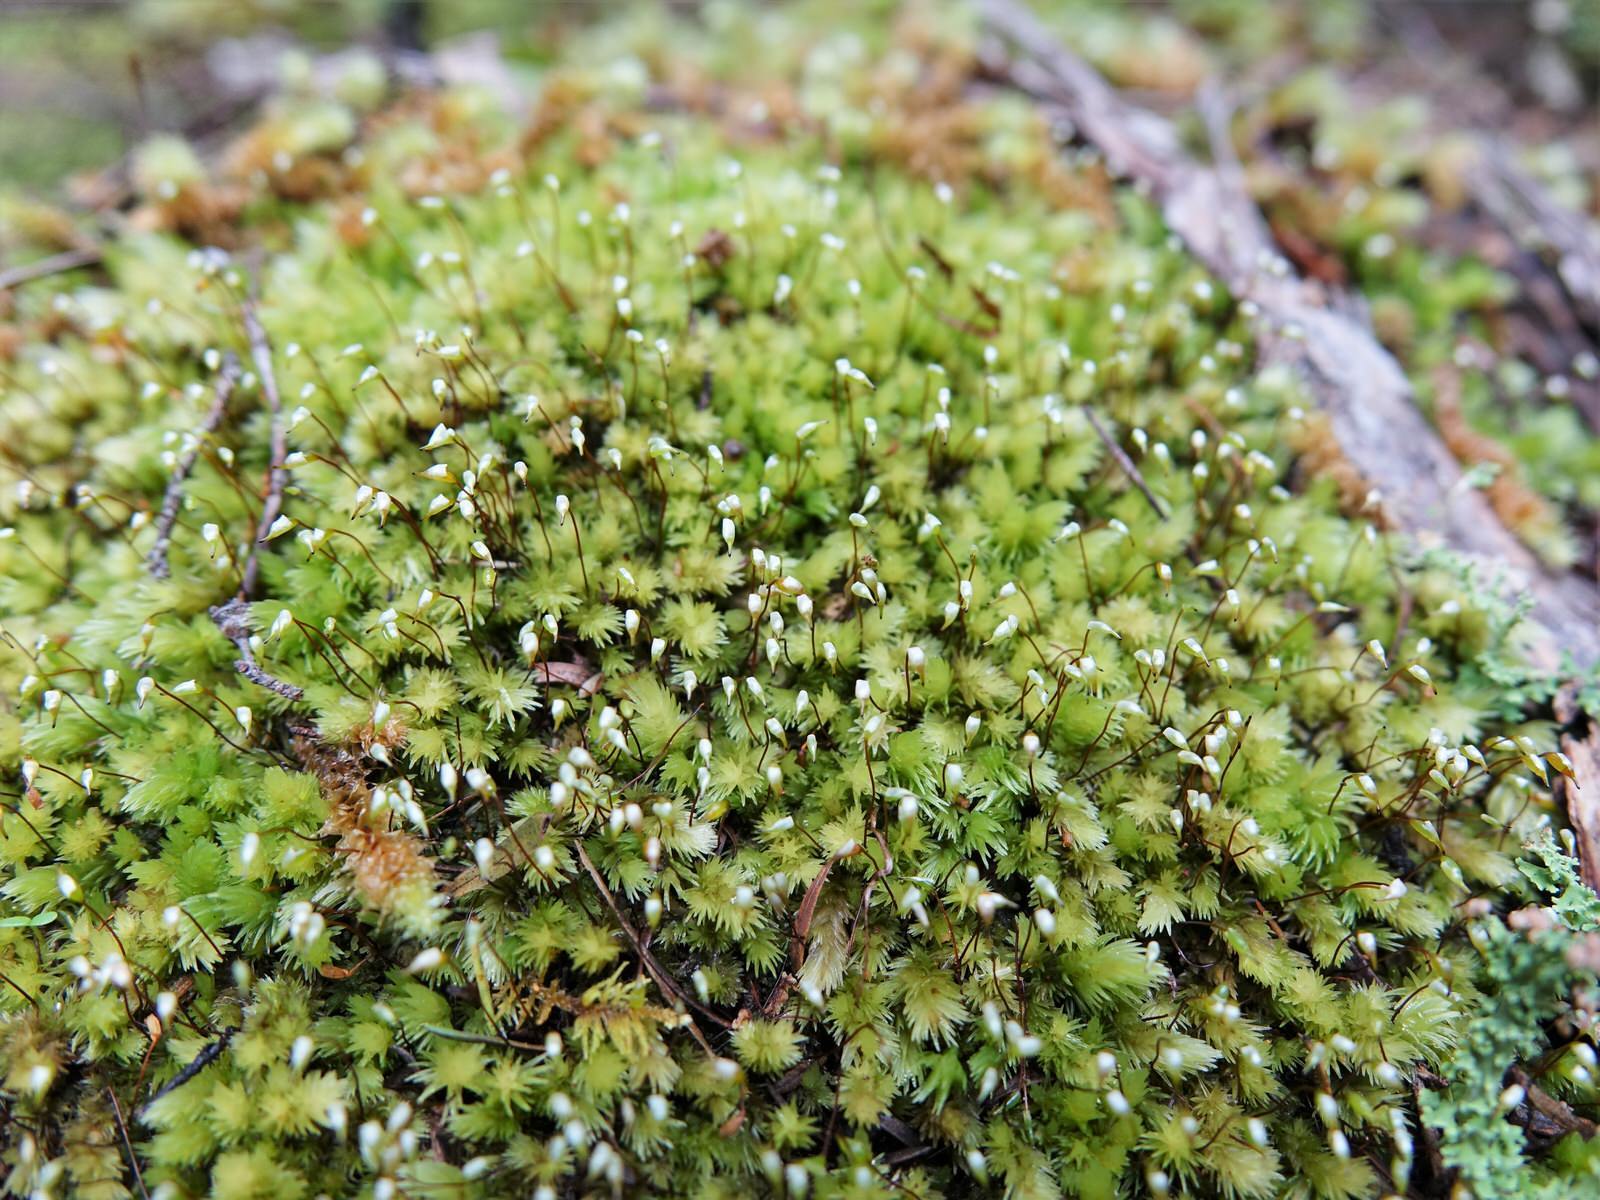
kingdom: Plantae
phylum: Bryophyta
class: Bryopsida
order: Dicranales
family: Leucobryaceae
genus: Leucobryum
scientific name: Leucobryum javense
